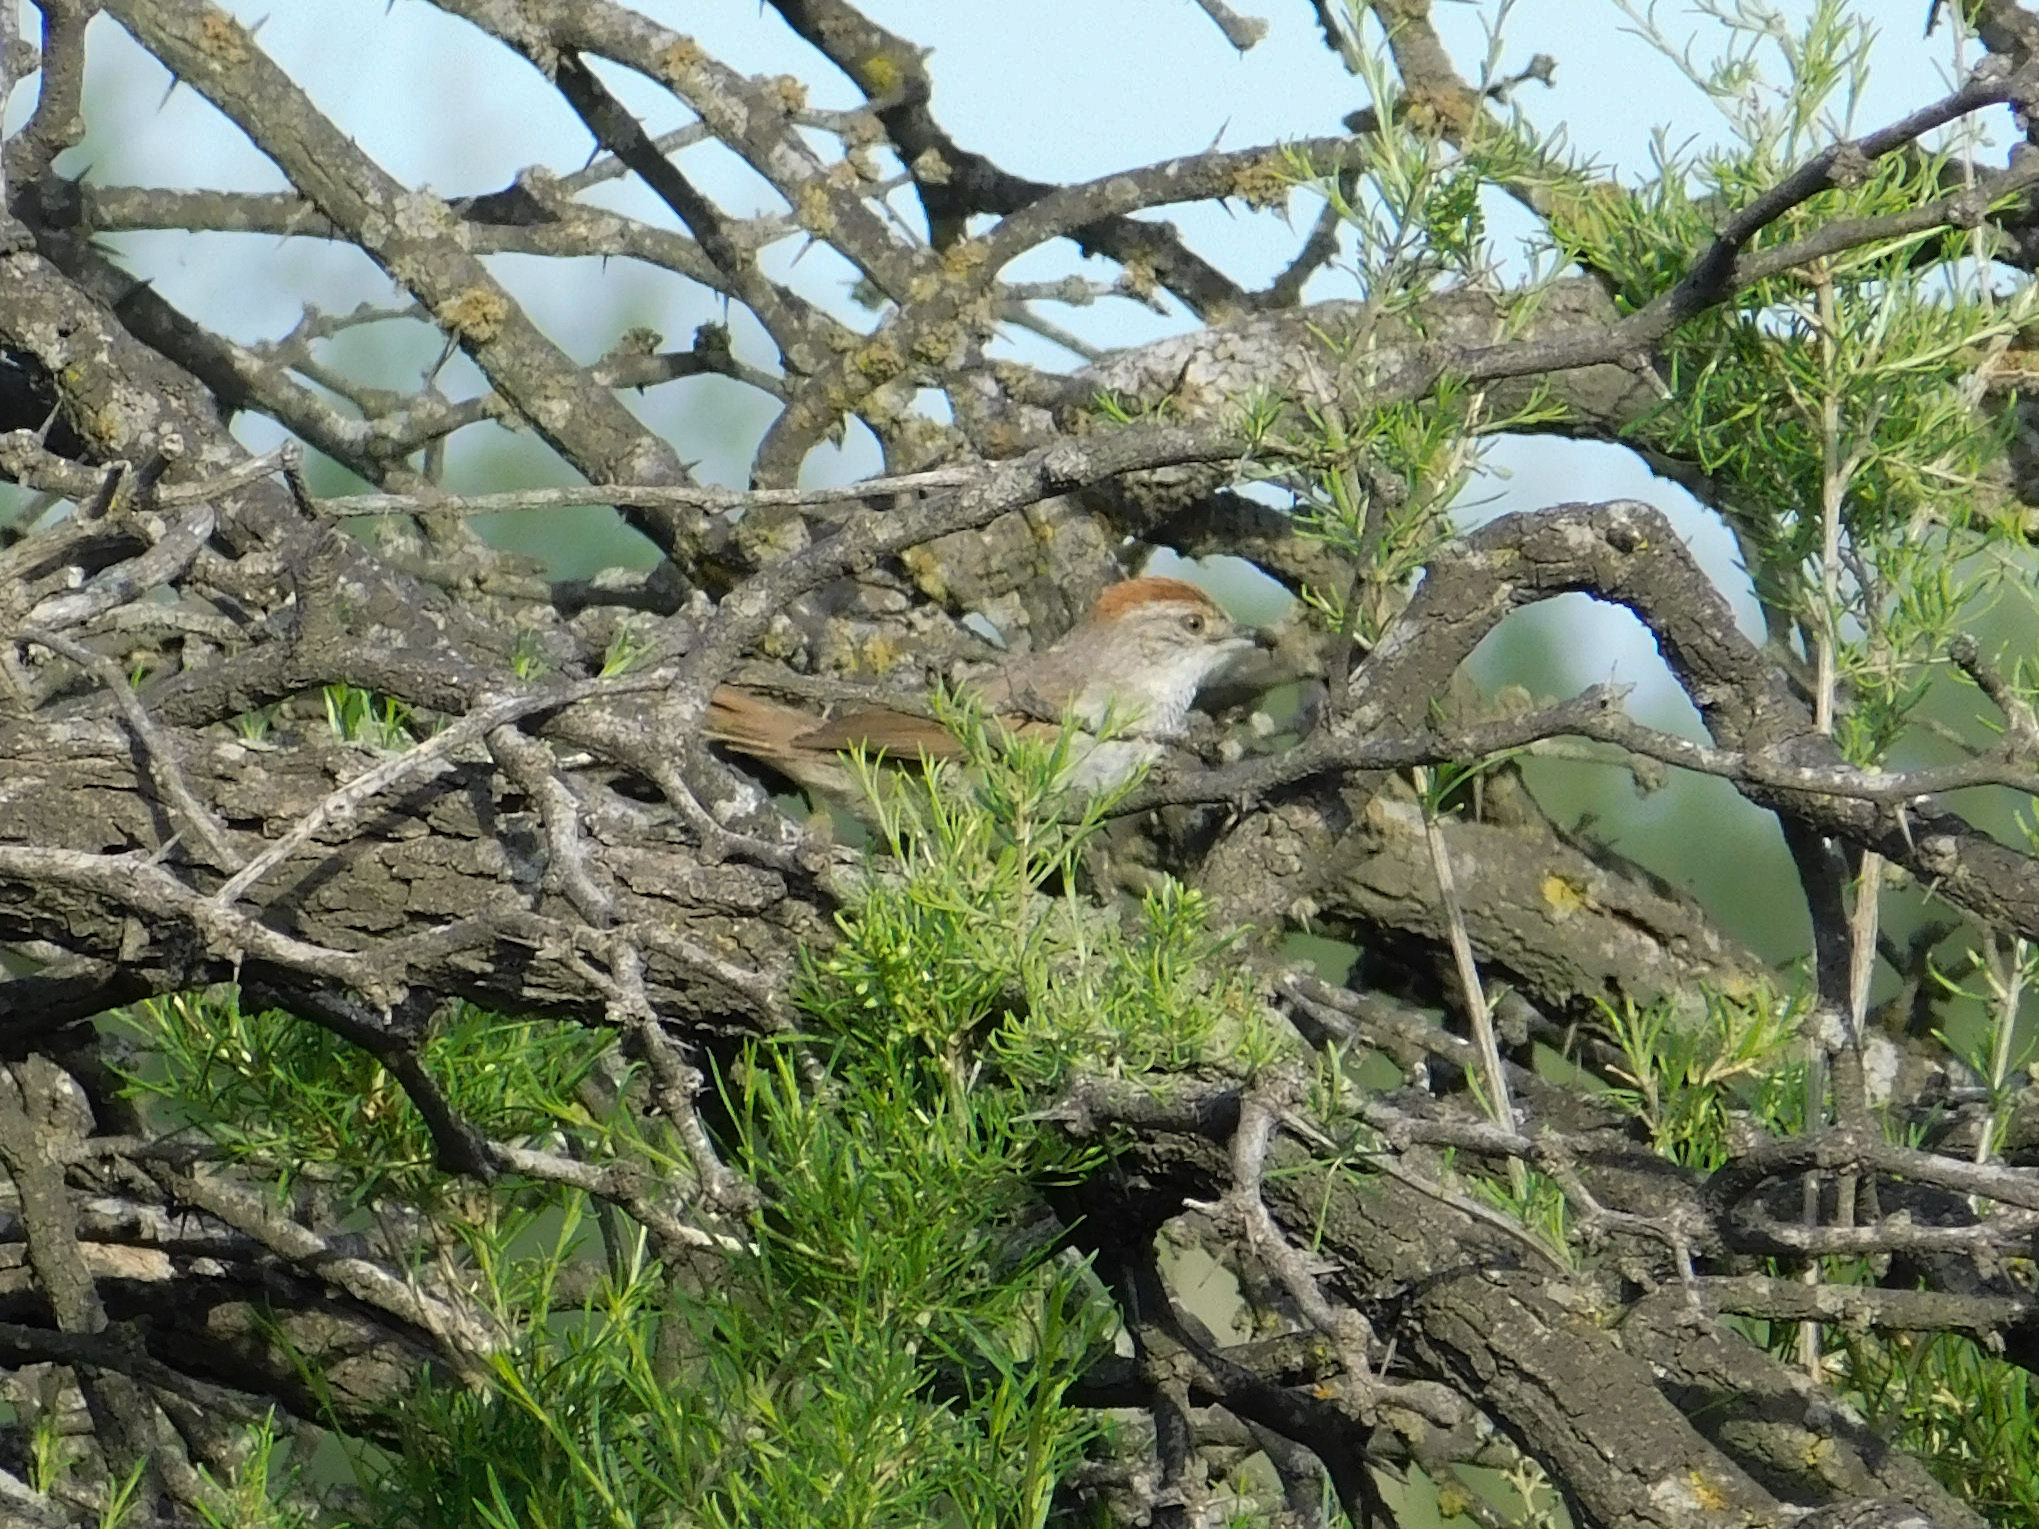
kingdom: Animalia
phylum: Chordata
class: Aves
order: Passeriformes
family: Furnariidae
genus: Synallaxis
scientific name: Synallaxis albescens
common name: Pale-breasted spinetail
